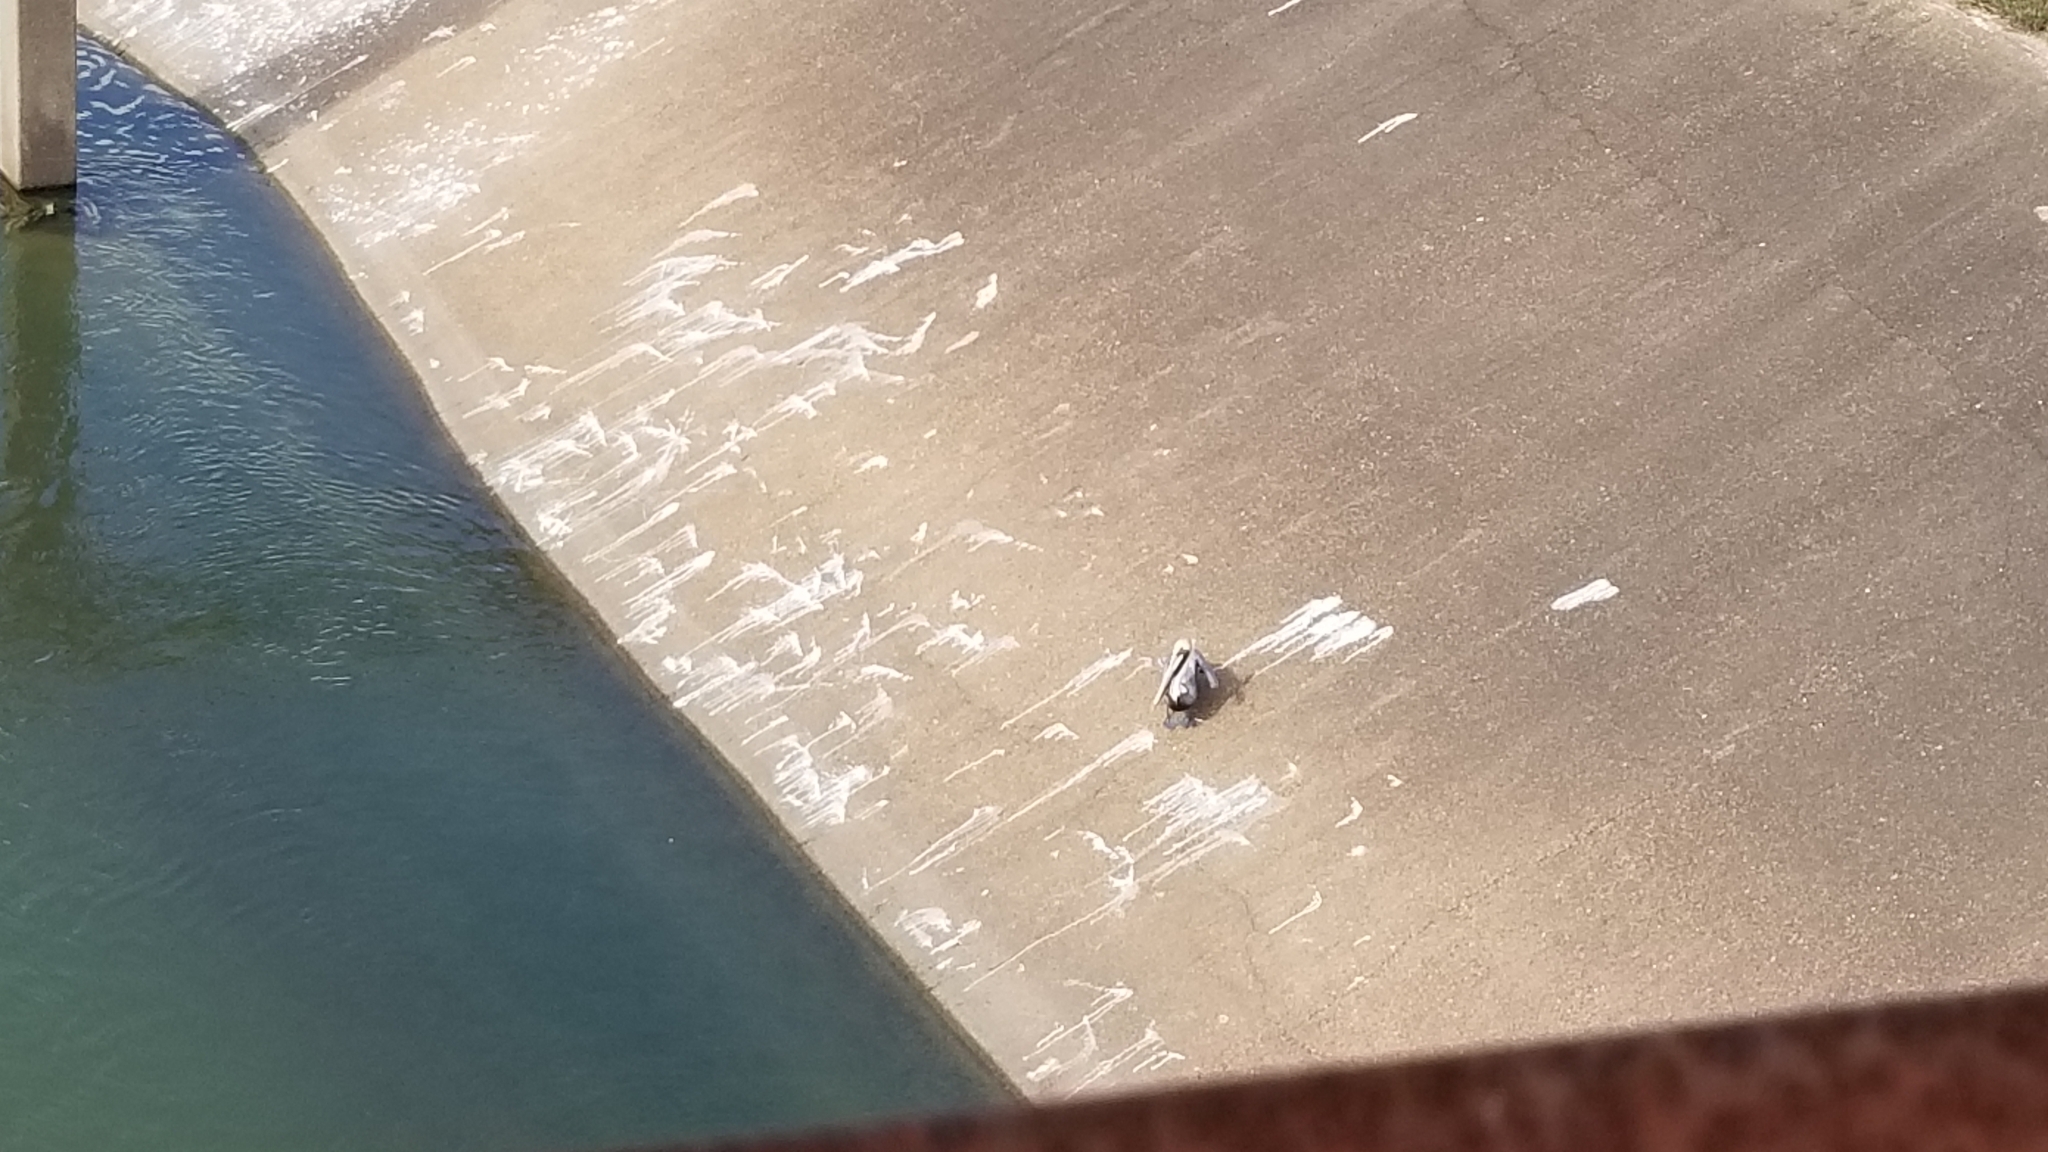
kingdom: Animalia
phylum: Chordata
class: Aves
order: Pelecaniformes
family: Pelecanidae
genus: Pelecanus
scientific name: Pelecanus occidentalis
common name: Brown pelican
